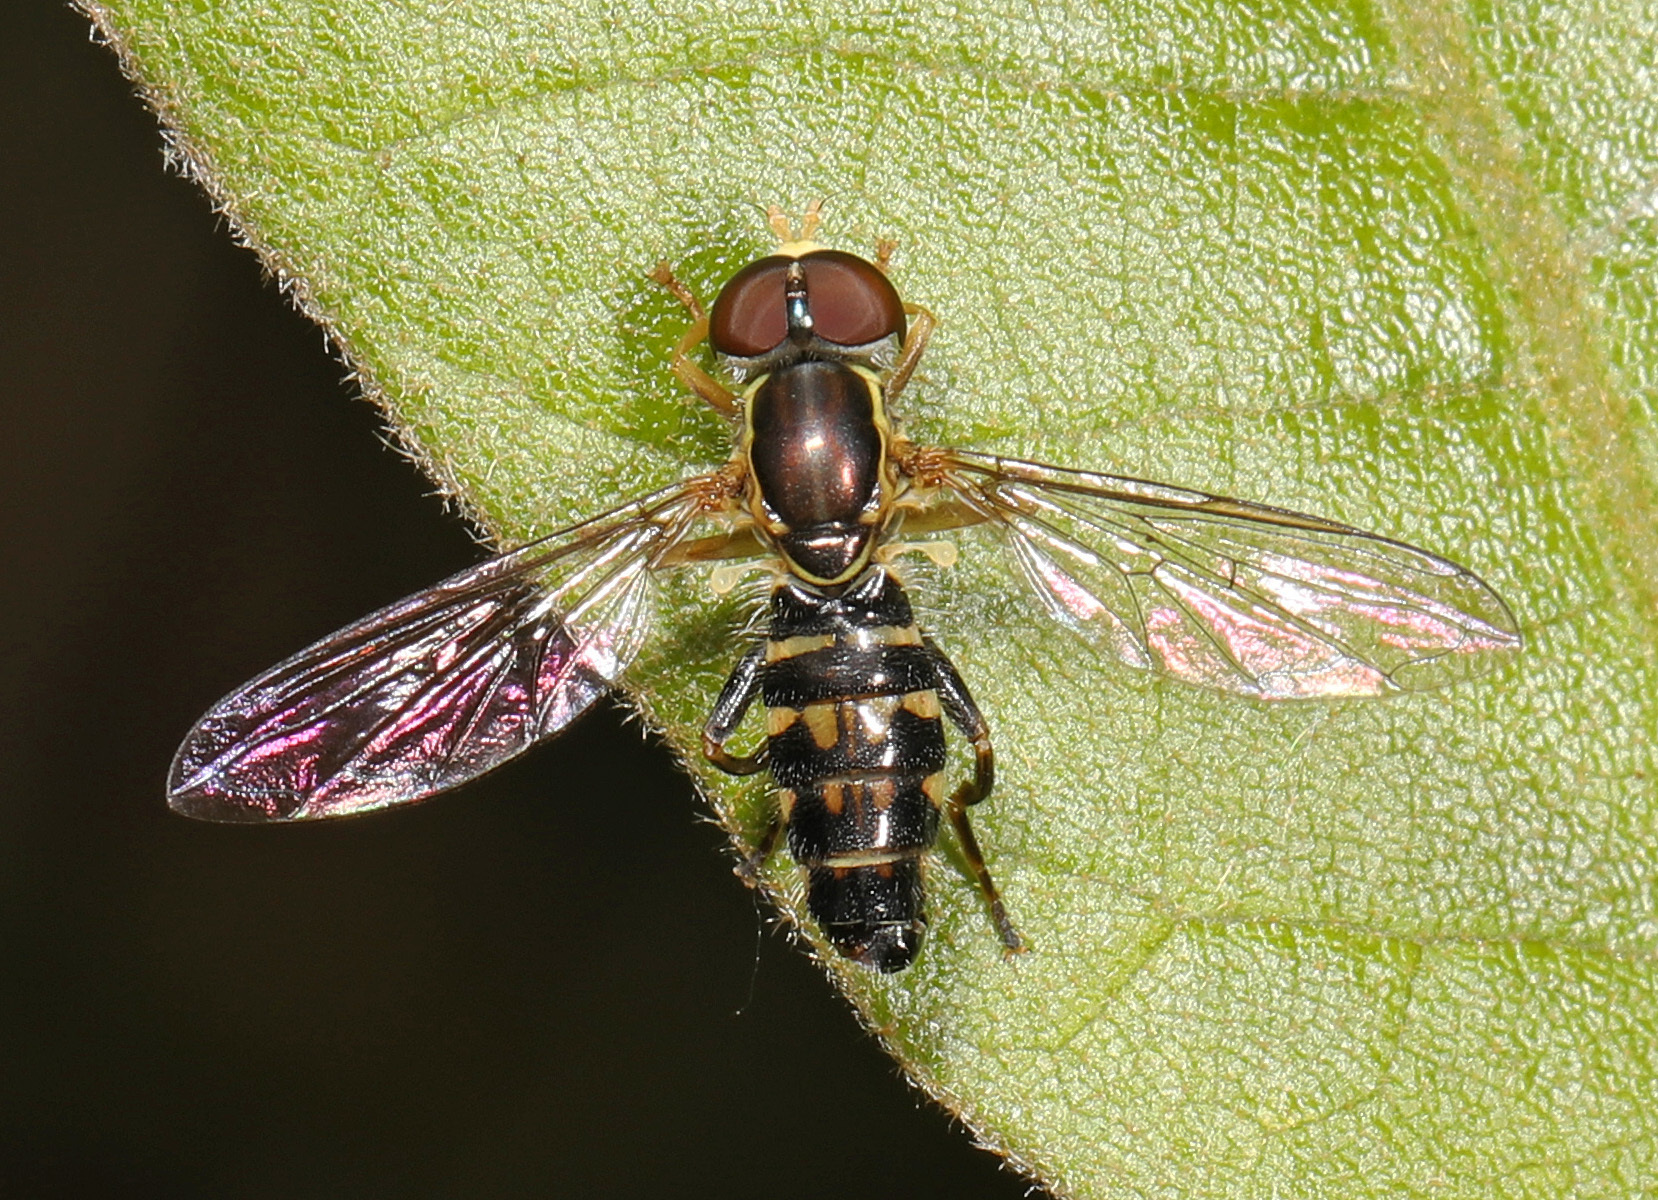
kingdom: Animalia
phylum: Arthropoda
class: Insecta
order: Diptera
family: Syrphidae
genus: Toxomerus
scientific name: Toxomerus geminatus
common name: Eastern calligrapher
